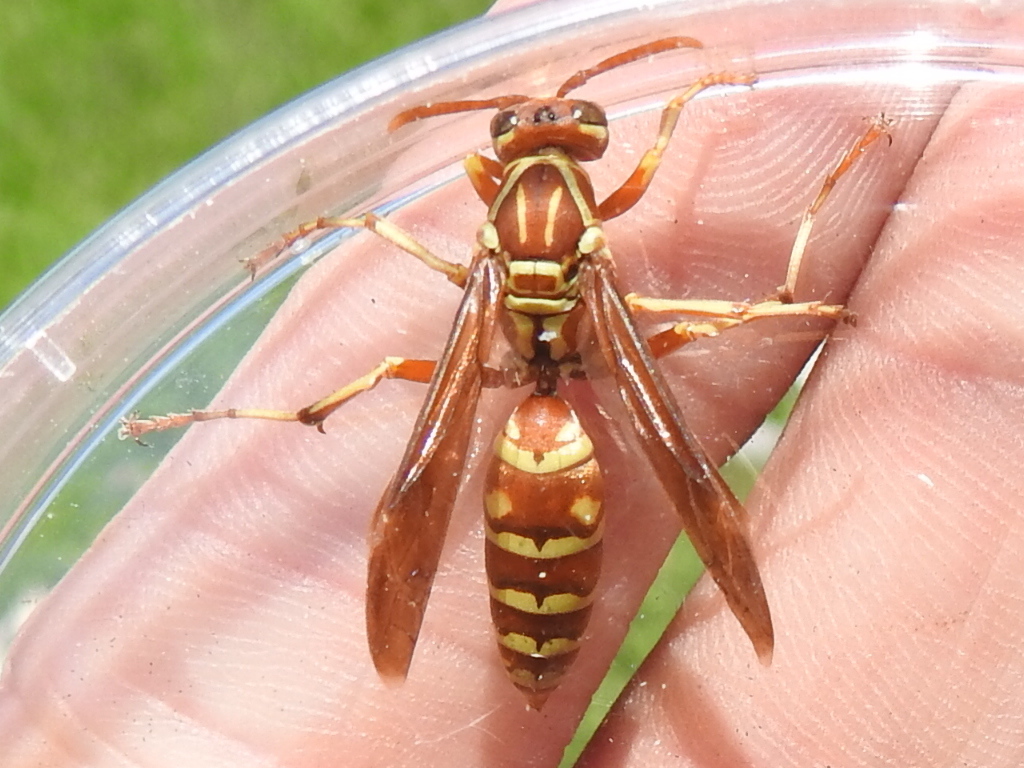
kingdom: Animalia
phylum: Arthropoda
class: Insecta
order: Hymenoptera
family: Eumenidae
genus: Polistes
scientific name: Polistes apachus
